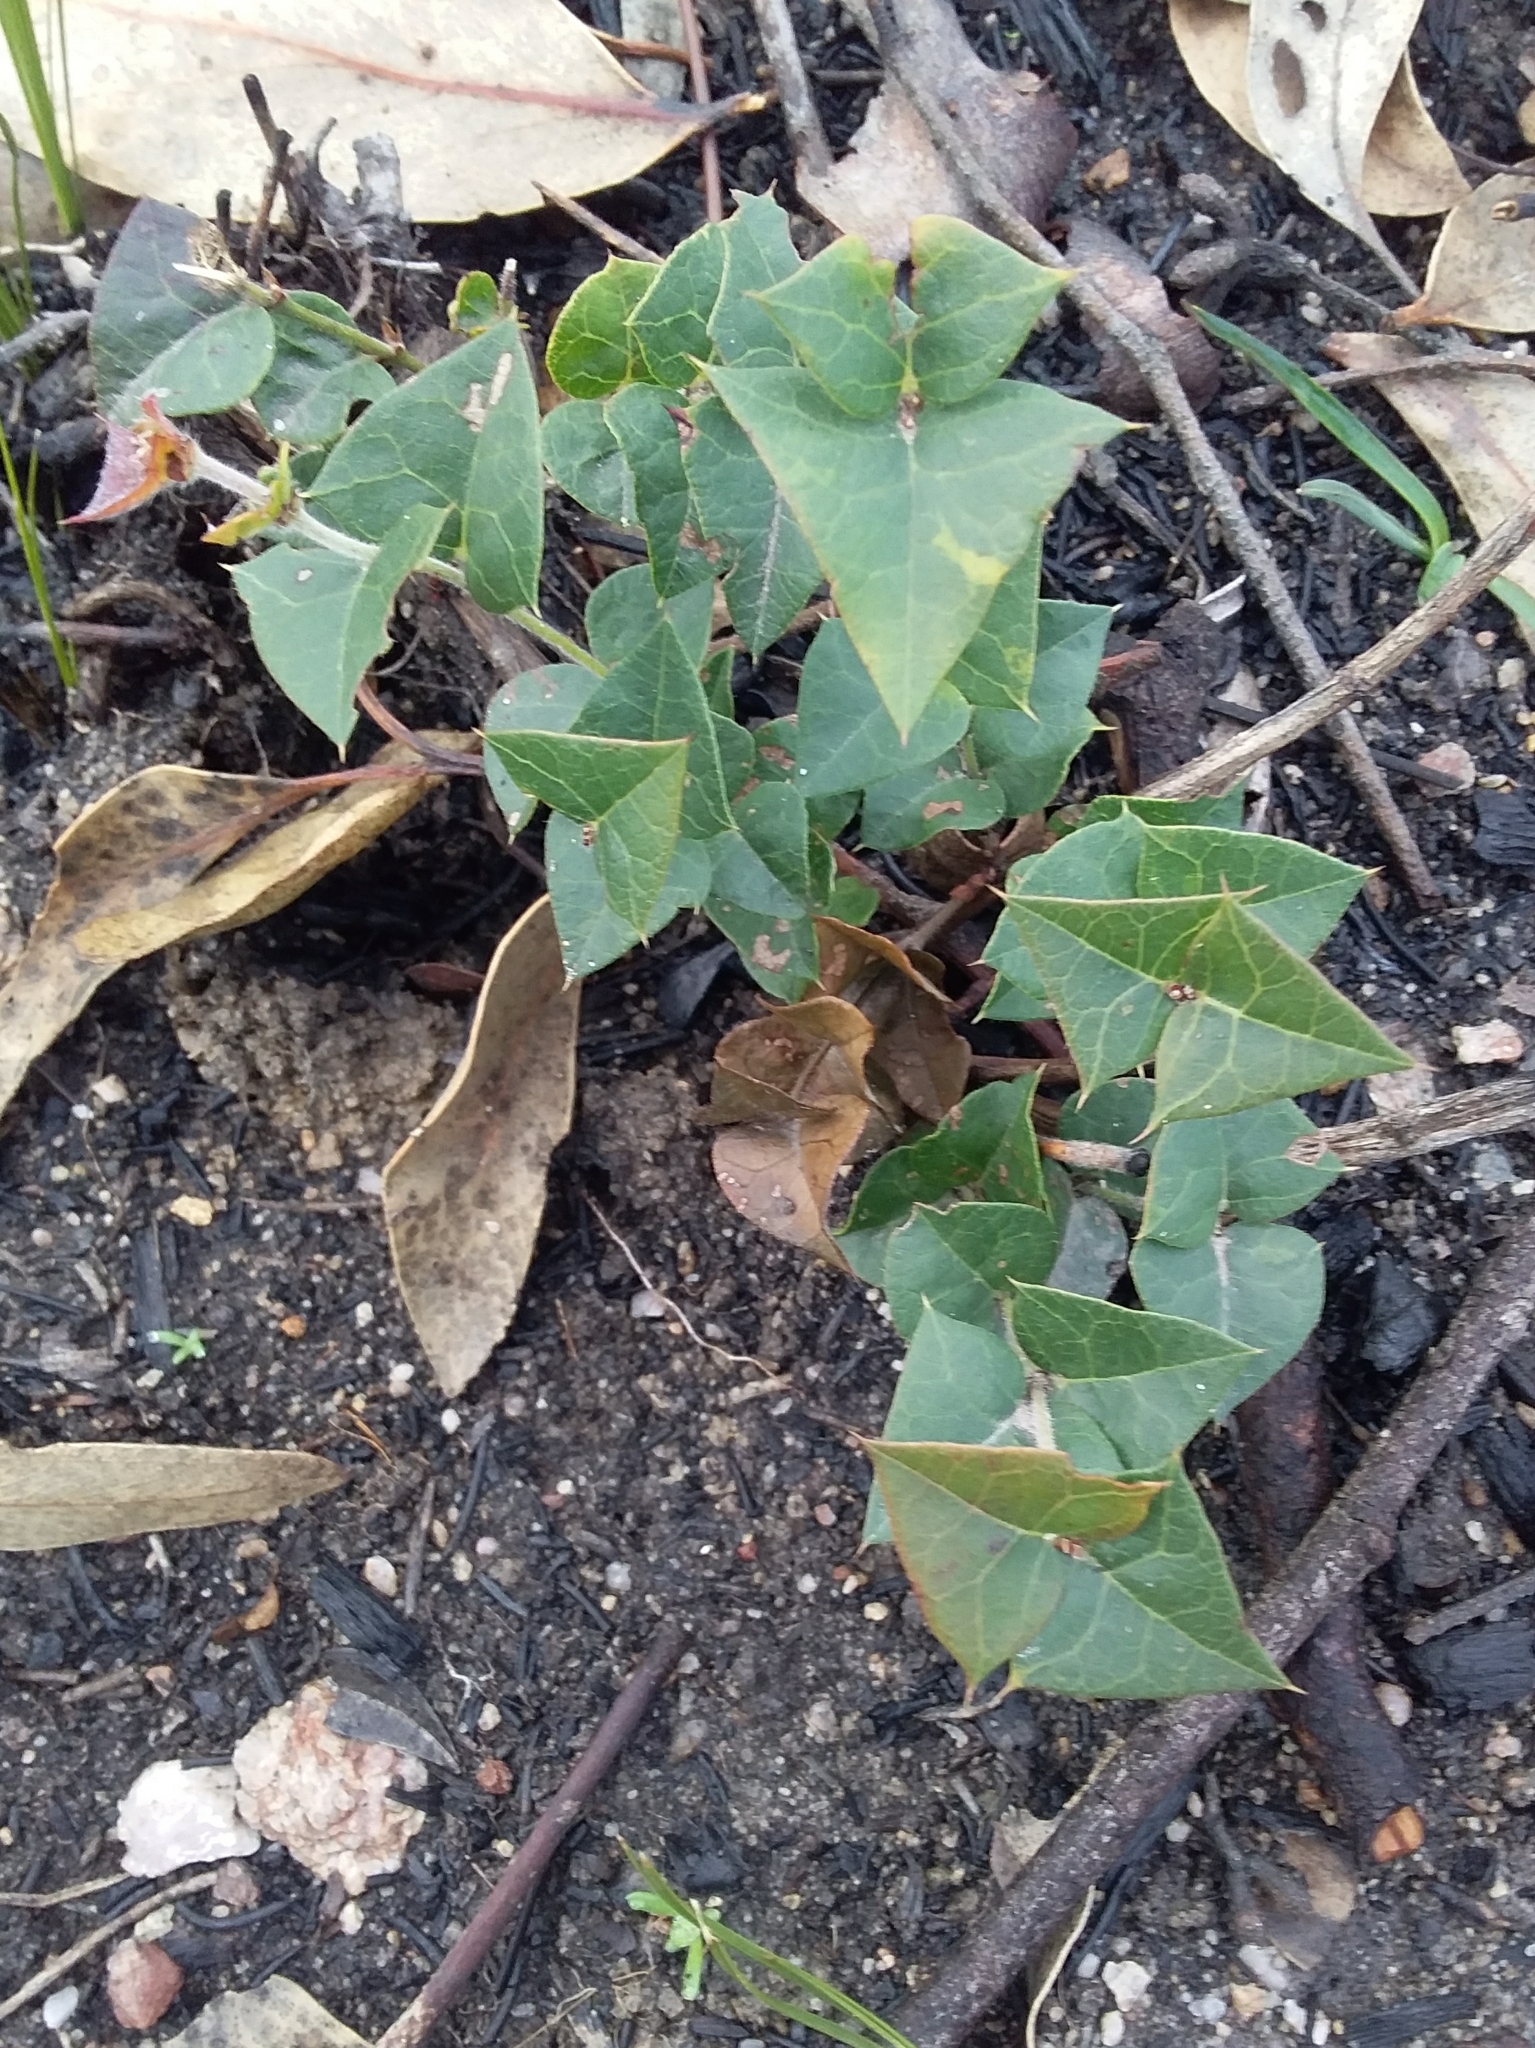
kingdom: Plantae
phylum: Tracheophyta
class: Magnoliopsida
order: Fabales
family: Fabaceae
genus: Platylobium
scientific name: Platylobium obtusangulum
